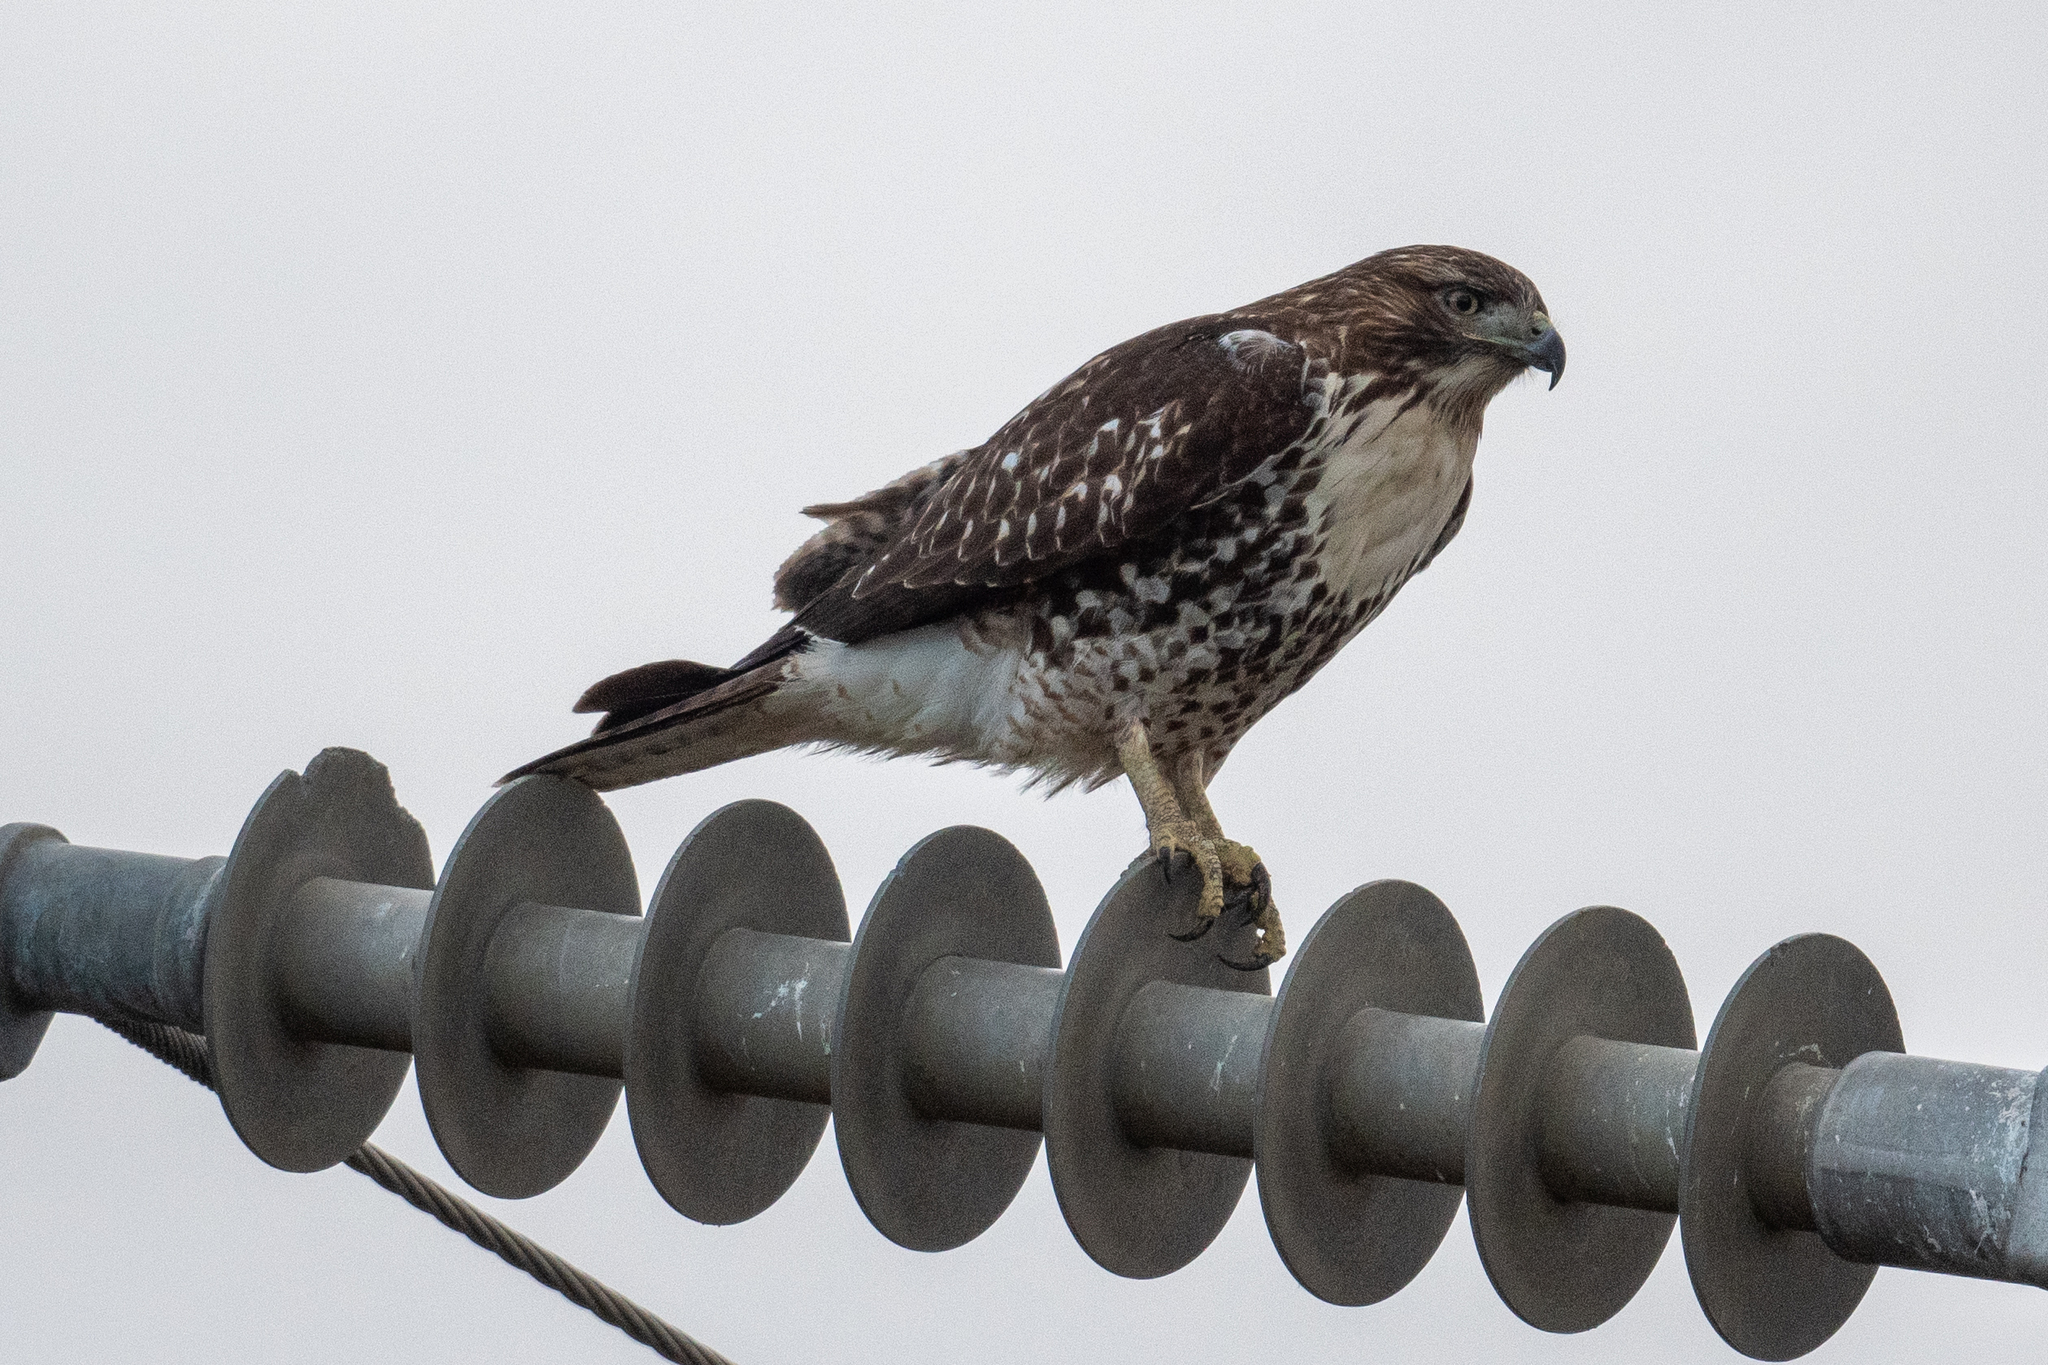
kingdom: Animalia
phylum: Chordata
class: Aves
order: Accipitriformes
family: Accipitridae
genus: Buteo
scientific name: Buteo jamaicensis
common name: Red-tailed hawk
